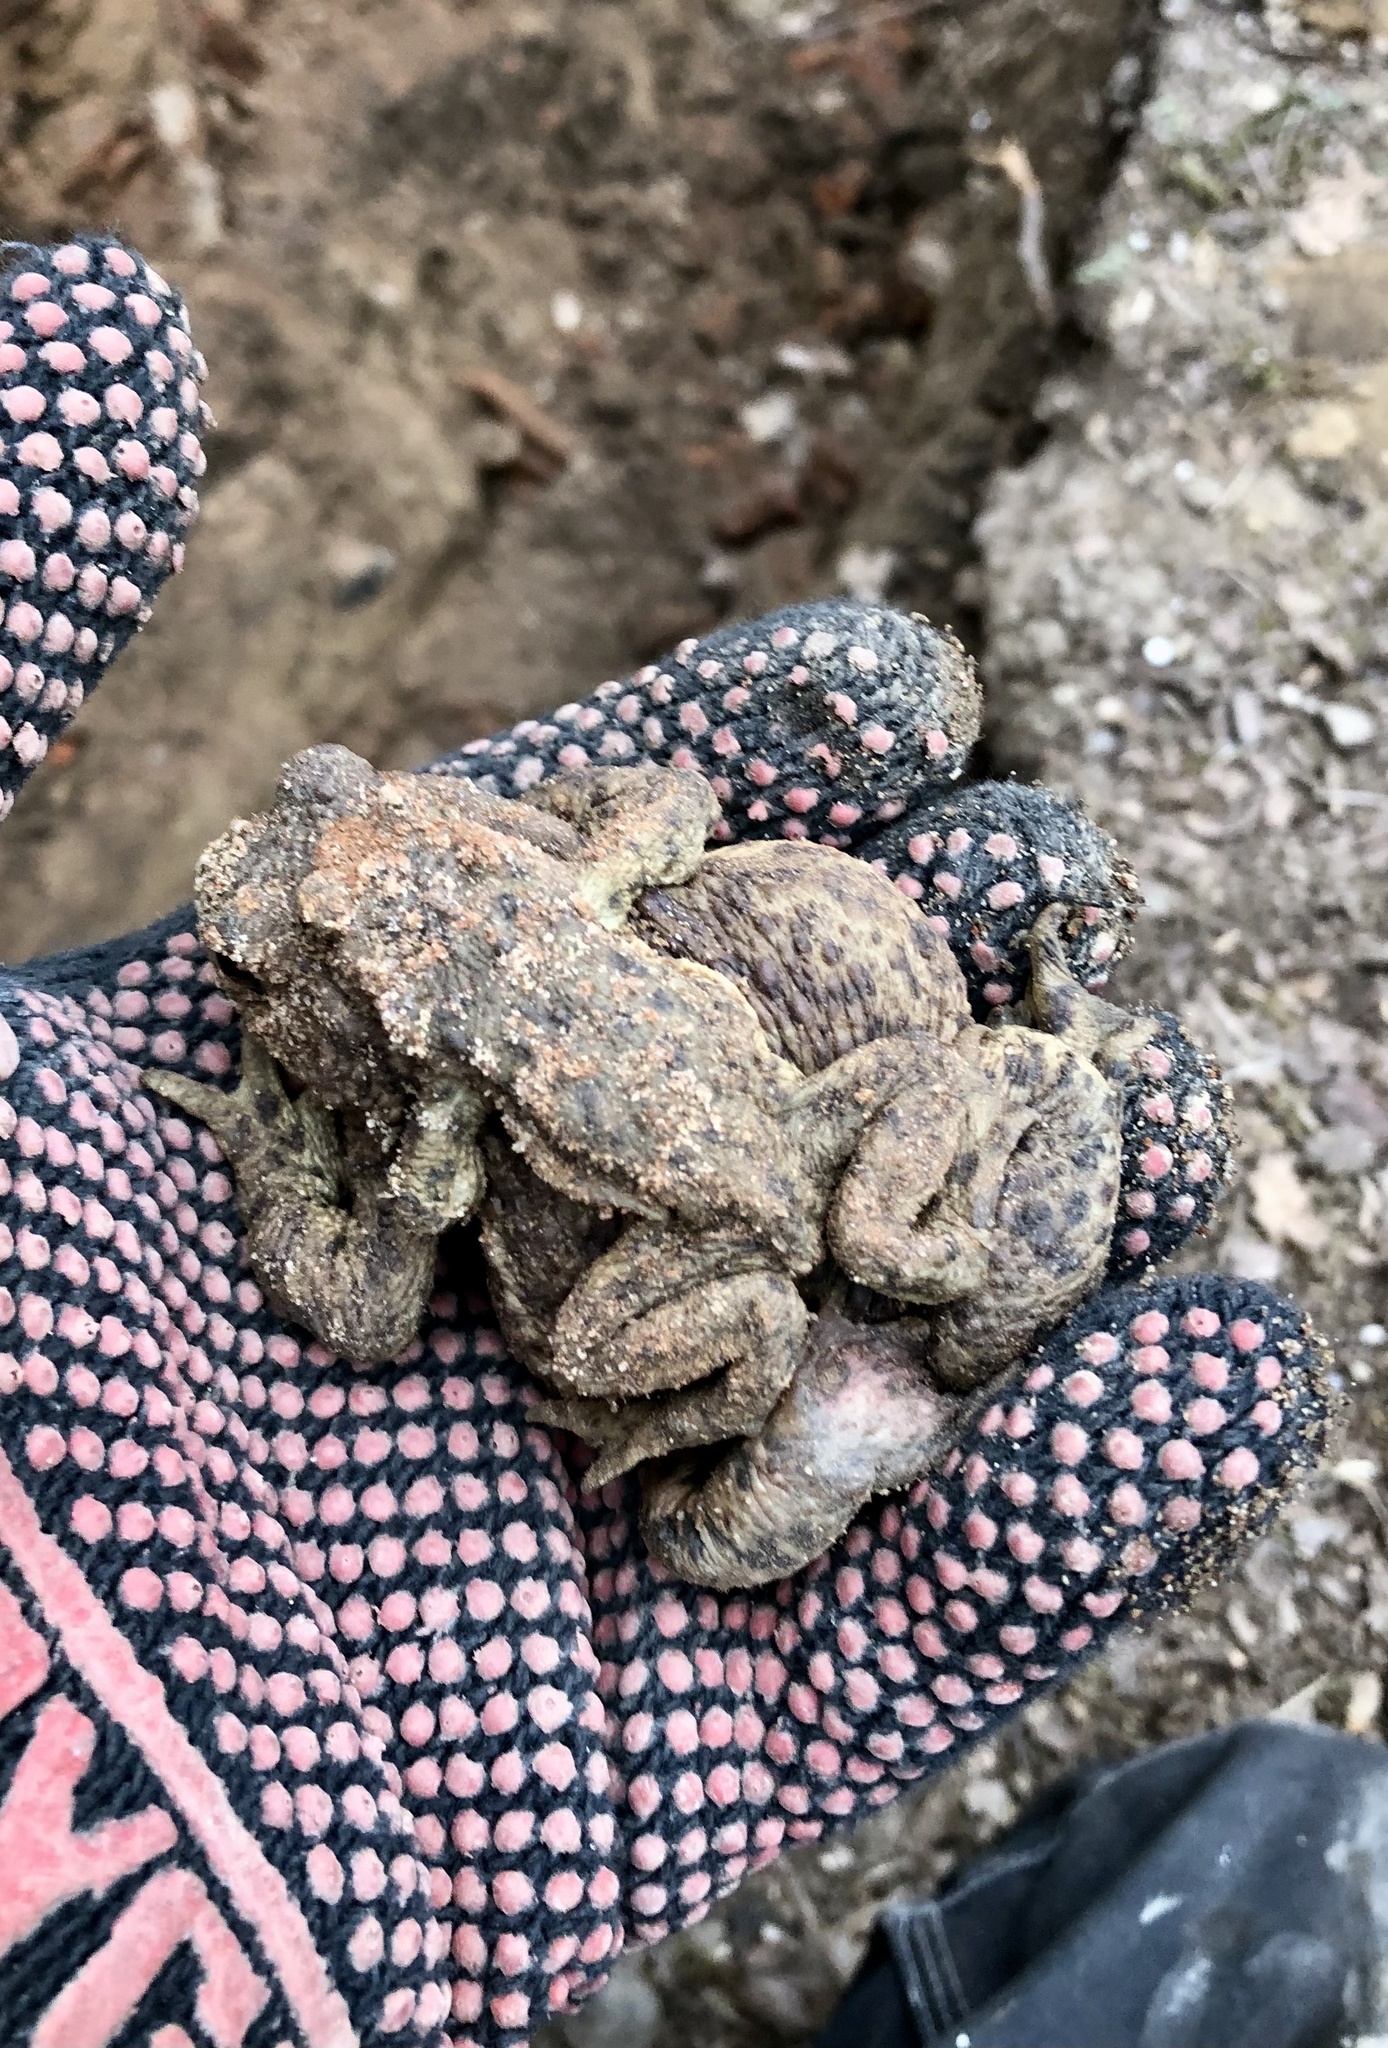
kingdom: Animalia
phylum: Chordata
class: Amphibia
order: Anura
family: Bufonidae
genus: Bufo
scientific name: Bufo bufo
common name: Common toad
